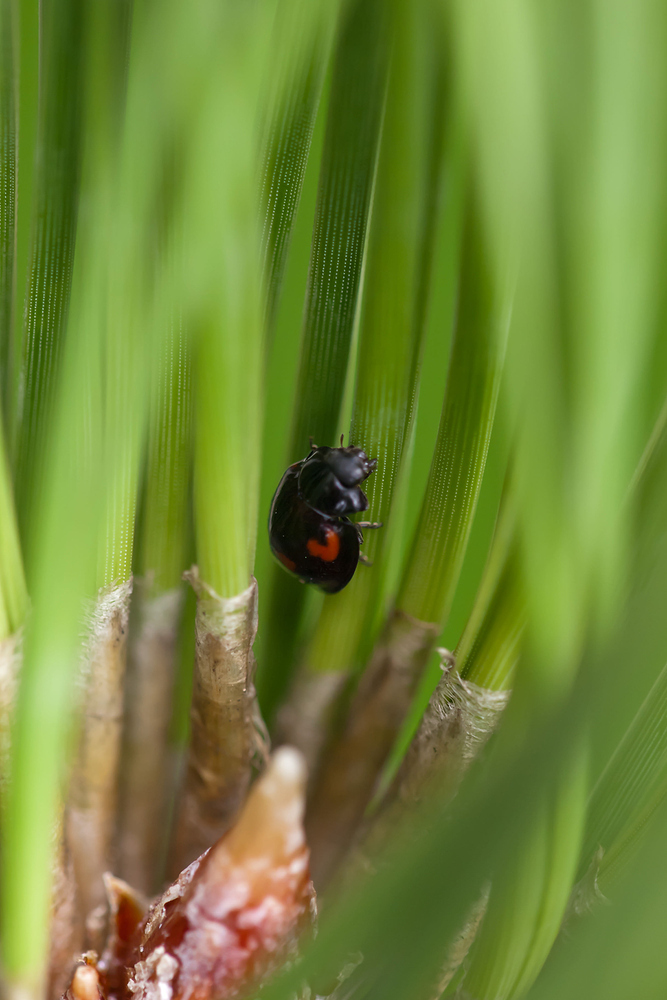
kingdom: Animalia
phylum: Arthropoda
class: Insecta
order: Coleoptera
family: Coccinellidae
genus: Brumus
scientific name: Brumus quadripustulatus
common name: Ladybird beetle
